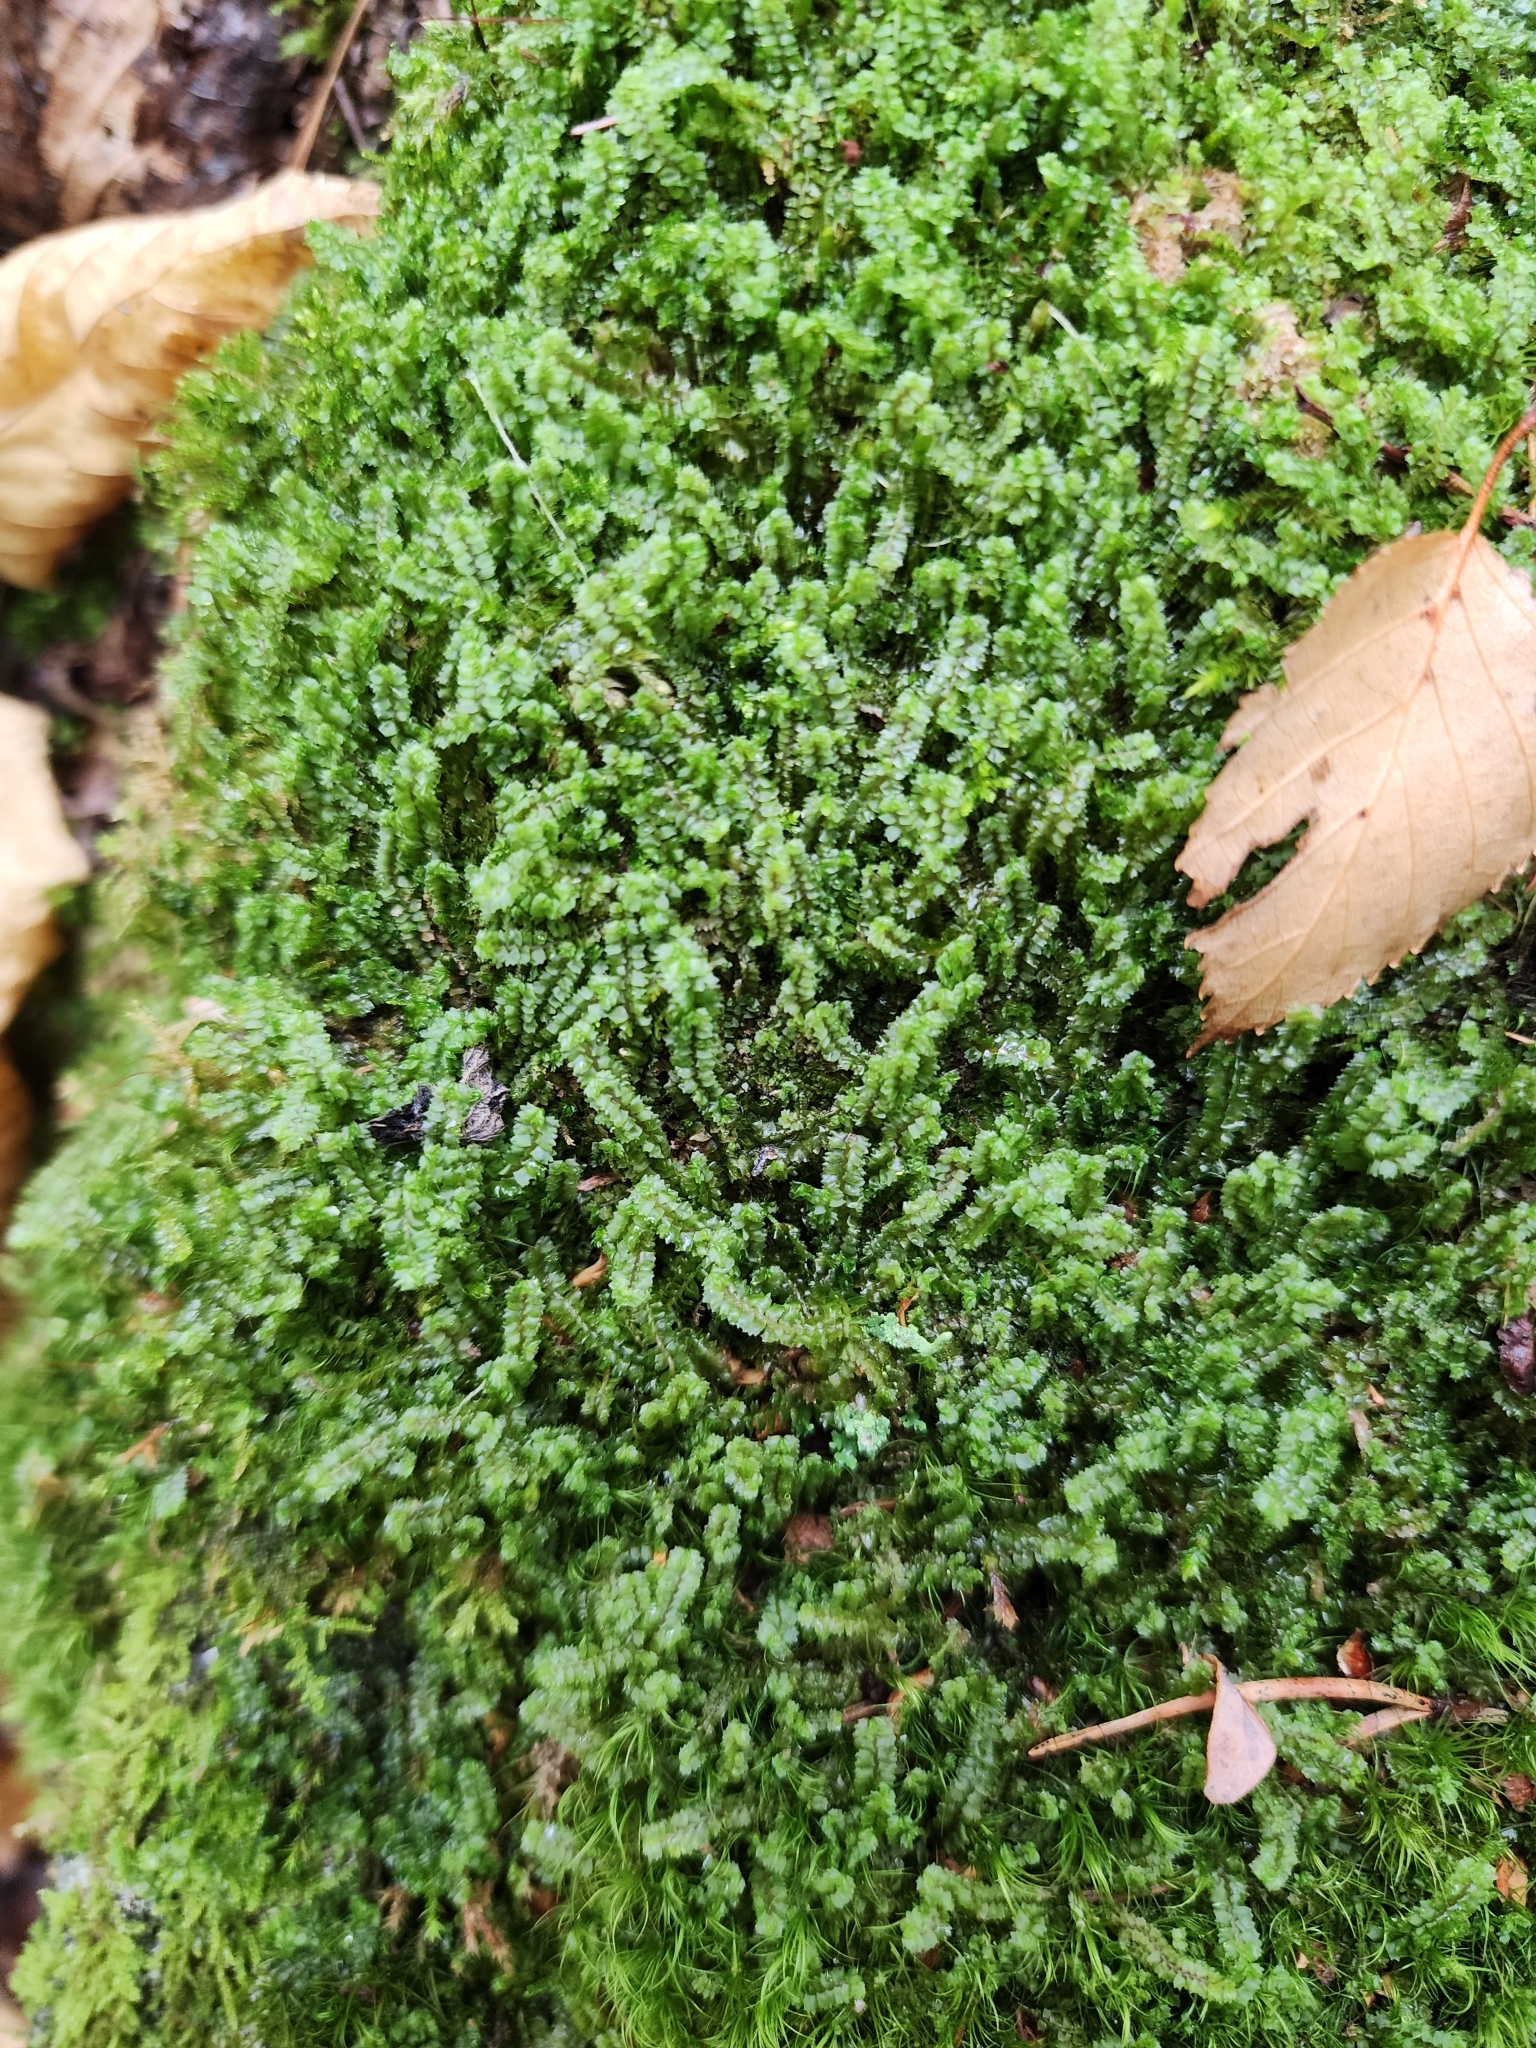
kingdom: Plantae
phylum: Marchantiophyta
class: Jungermanniopsida
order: Jungermanniales
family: Anastrophyllaceae
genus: Barbilophozia
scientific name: Barbilophozia barbata
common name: Bearded pawwort
